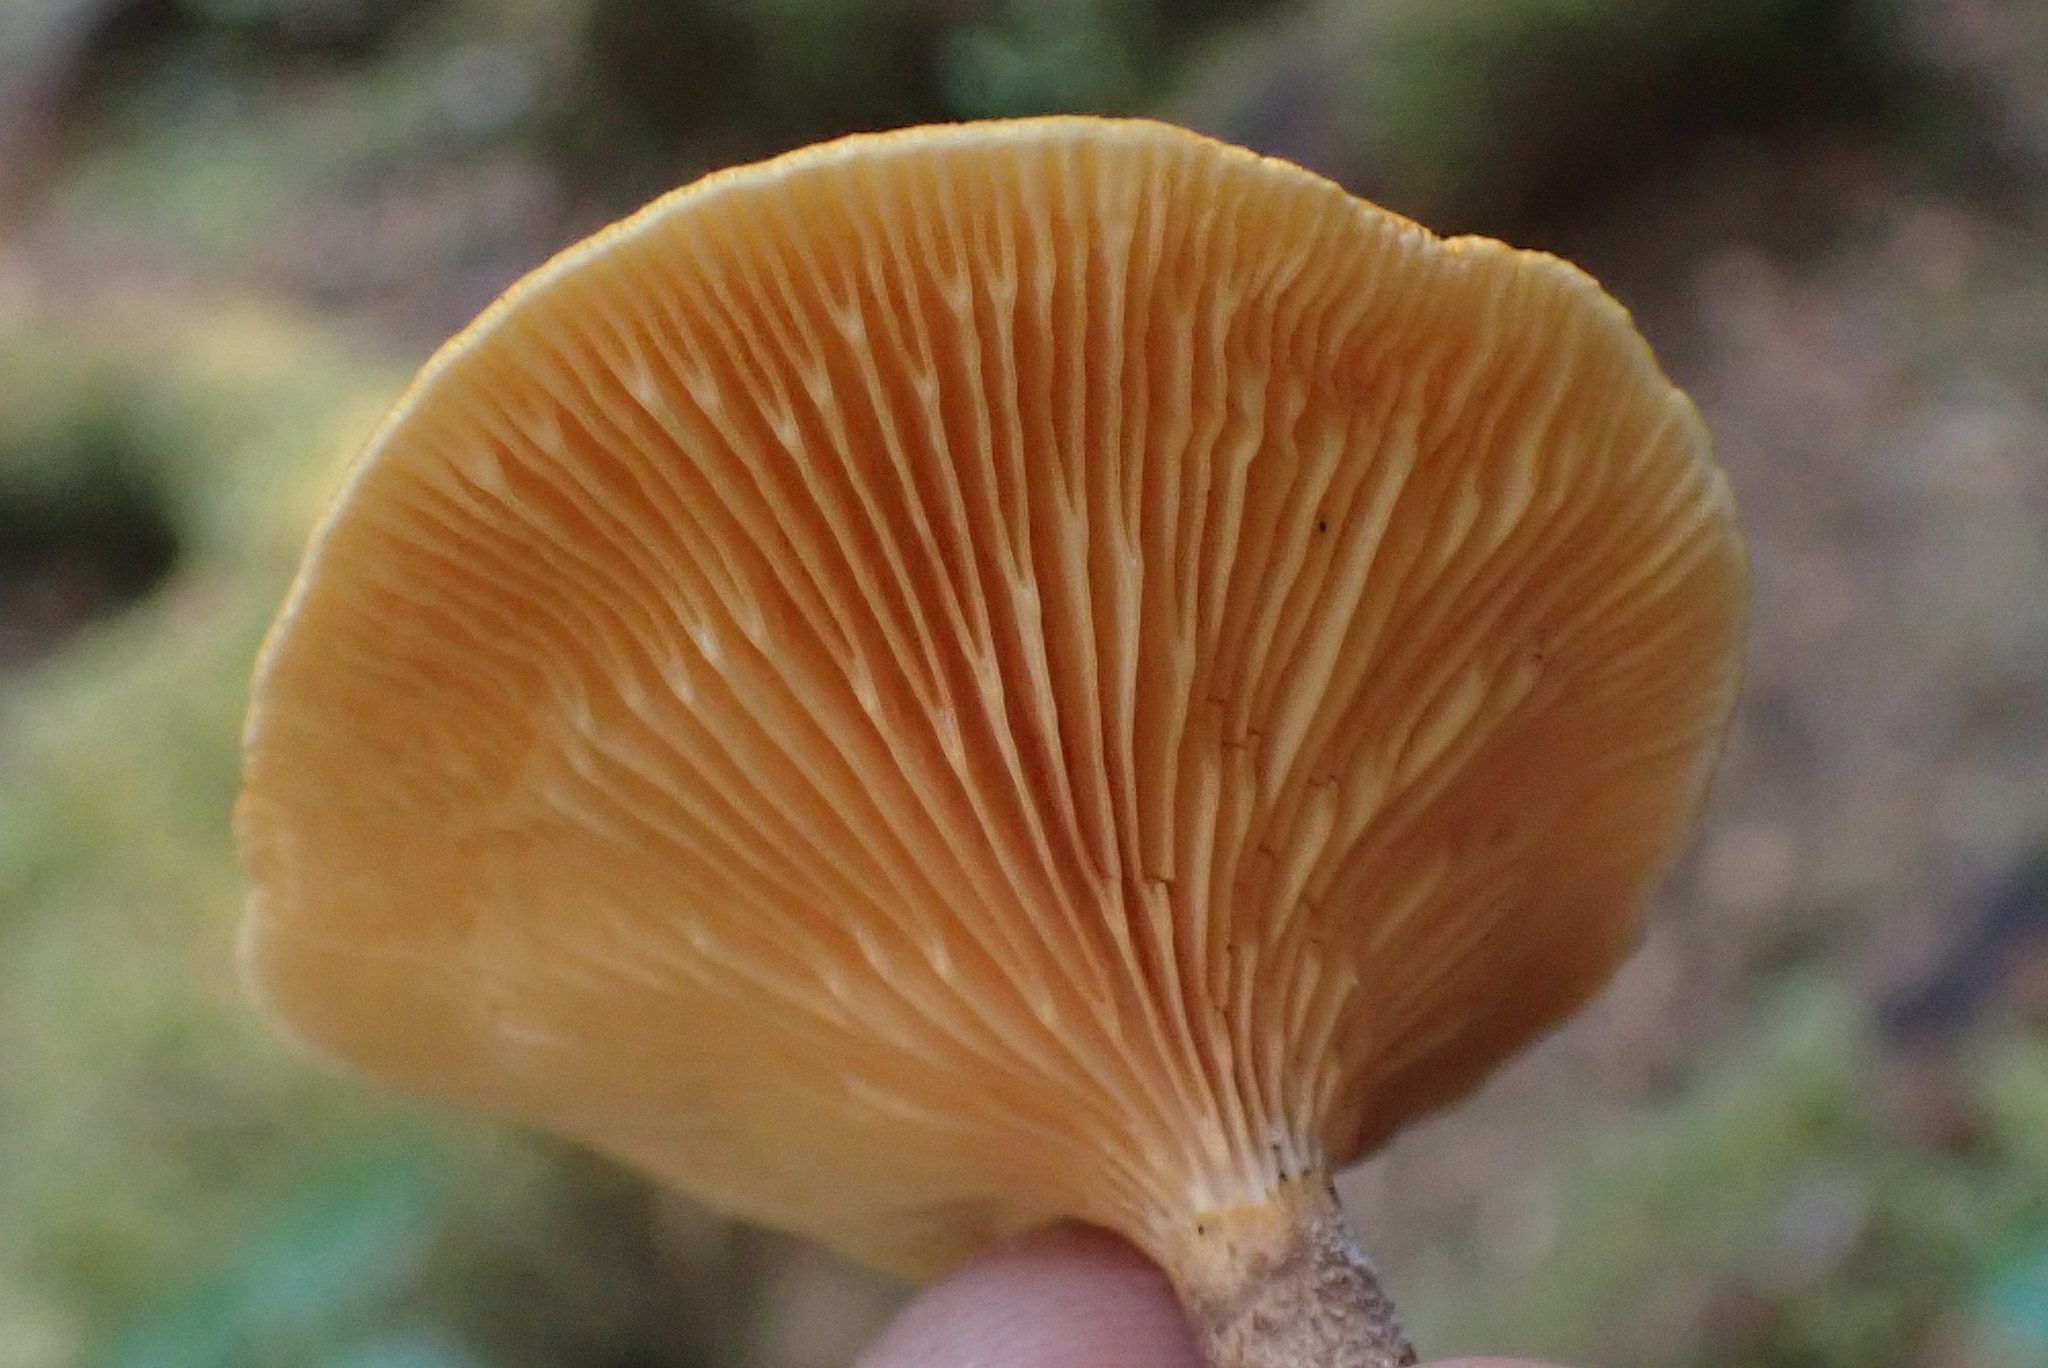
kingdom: Fungi
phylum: Basidiomycota
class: Agaricomycetes
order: Boletales
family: Hygrophoropsidaceae
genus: Hygrophoropsis
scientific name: Hygrophoropsis aurantiaca
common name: False chanterelle
